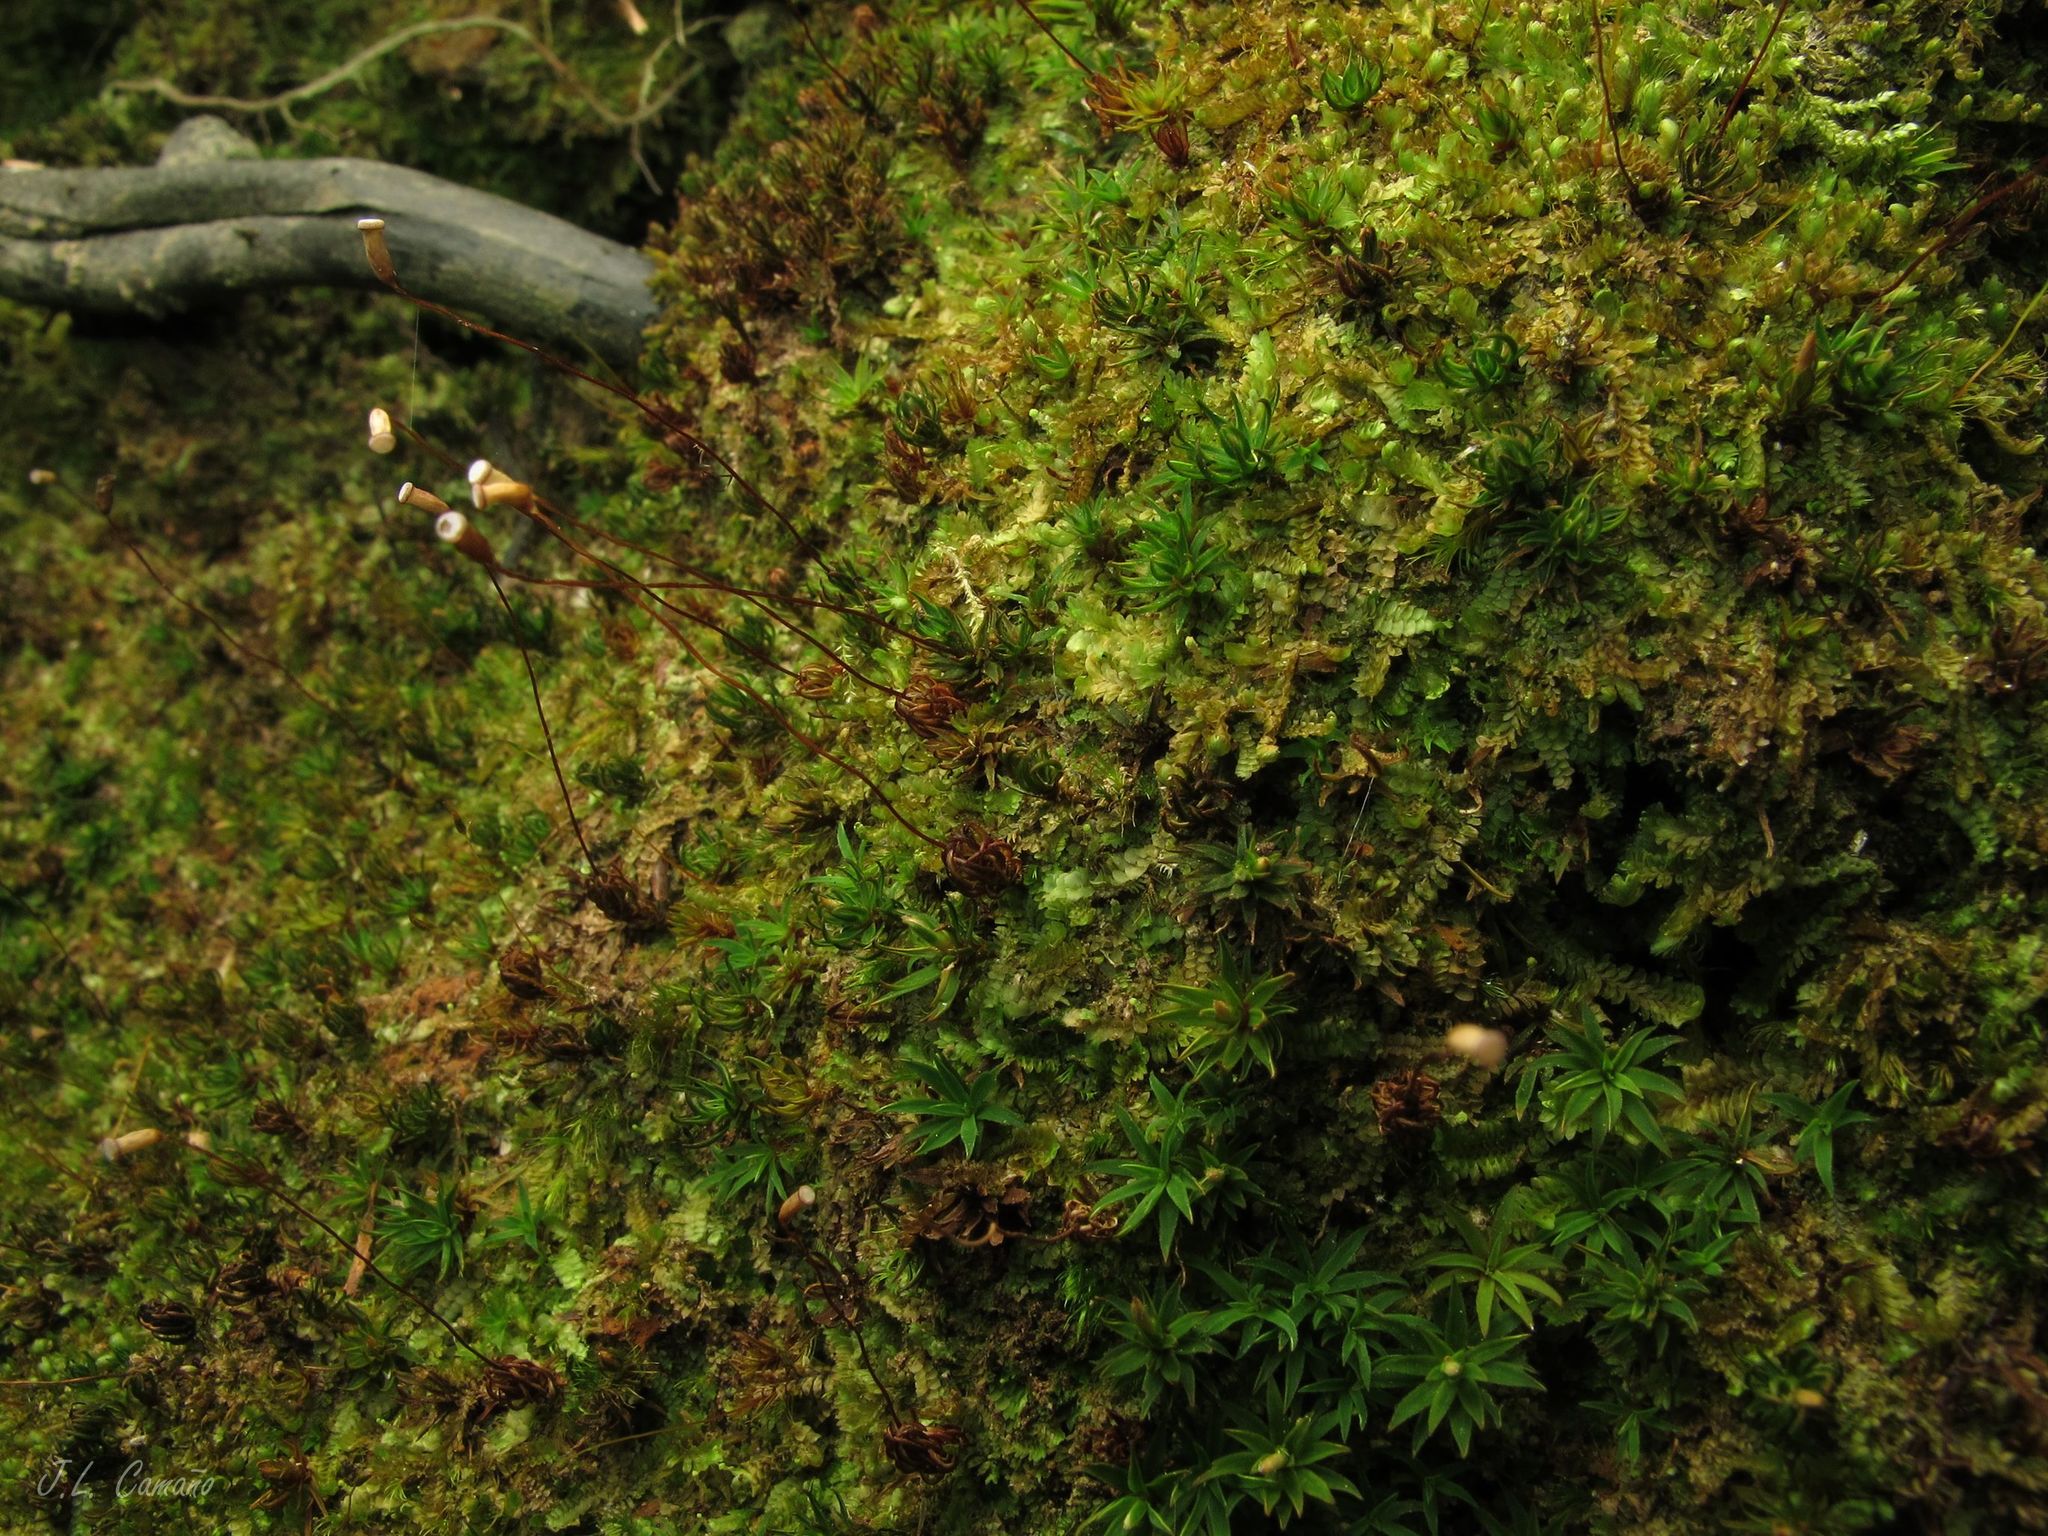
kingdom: Plantae
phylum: Bryophyta
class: Polytrichopsida
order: Polytrichales
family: Polytrichaceae
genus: Pogonatum
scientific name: Pogonatum aloides
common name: Aloe haircap
